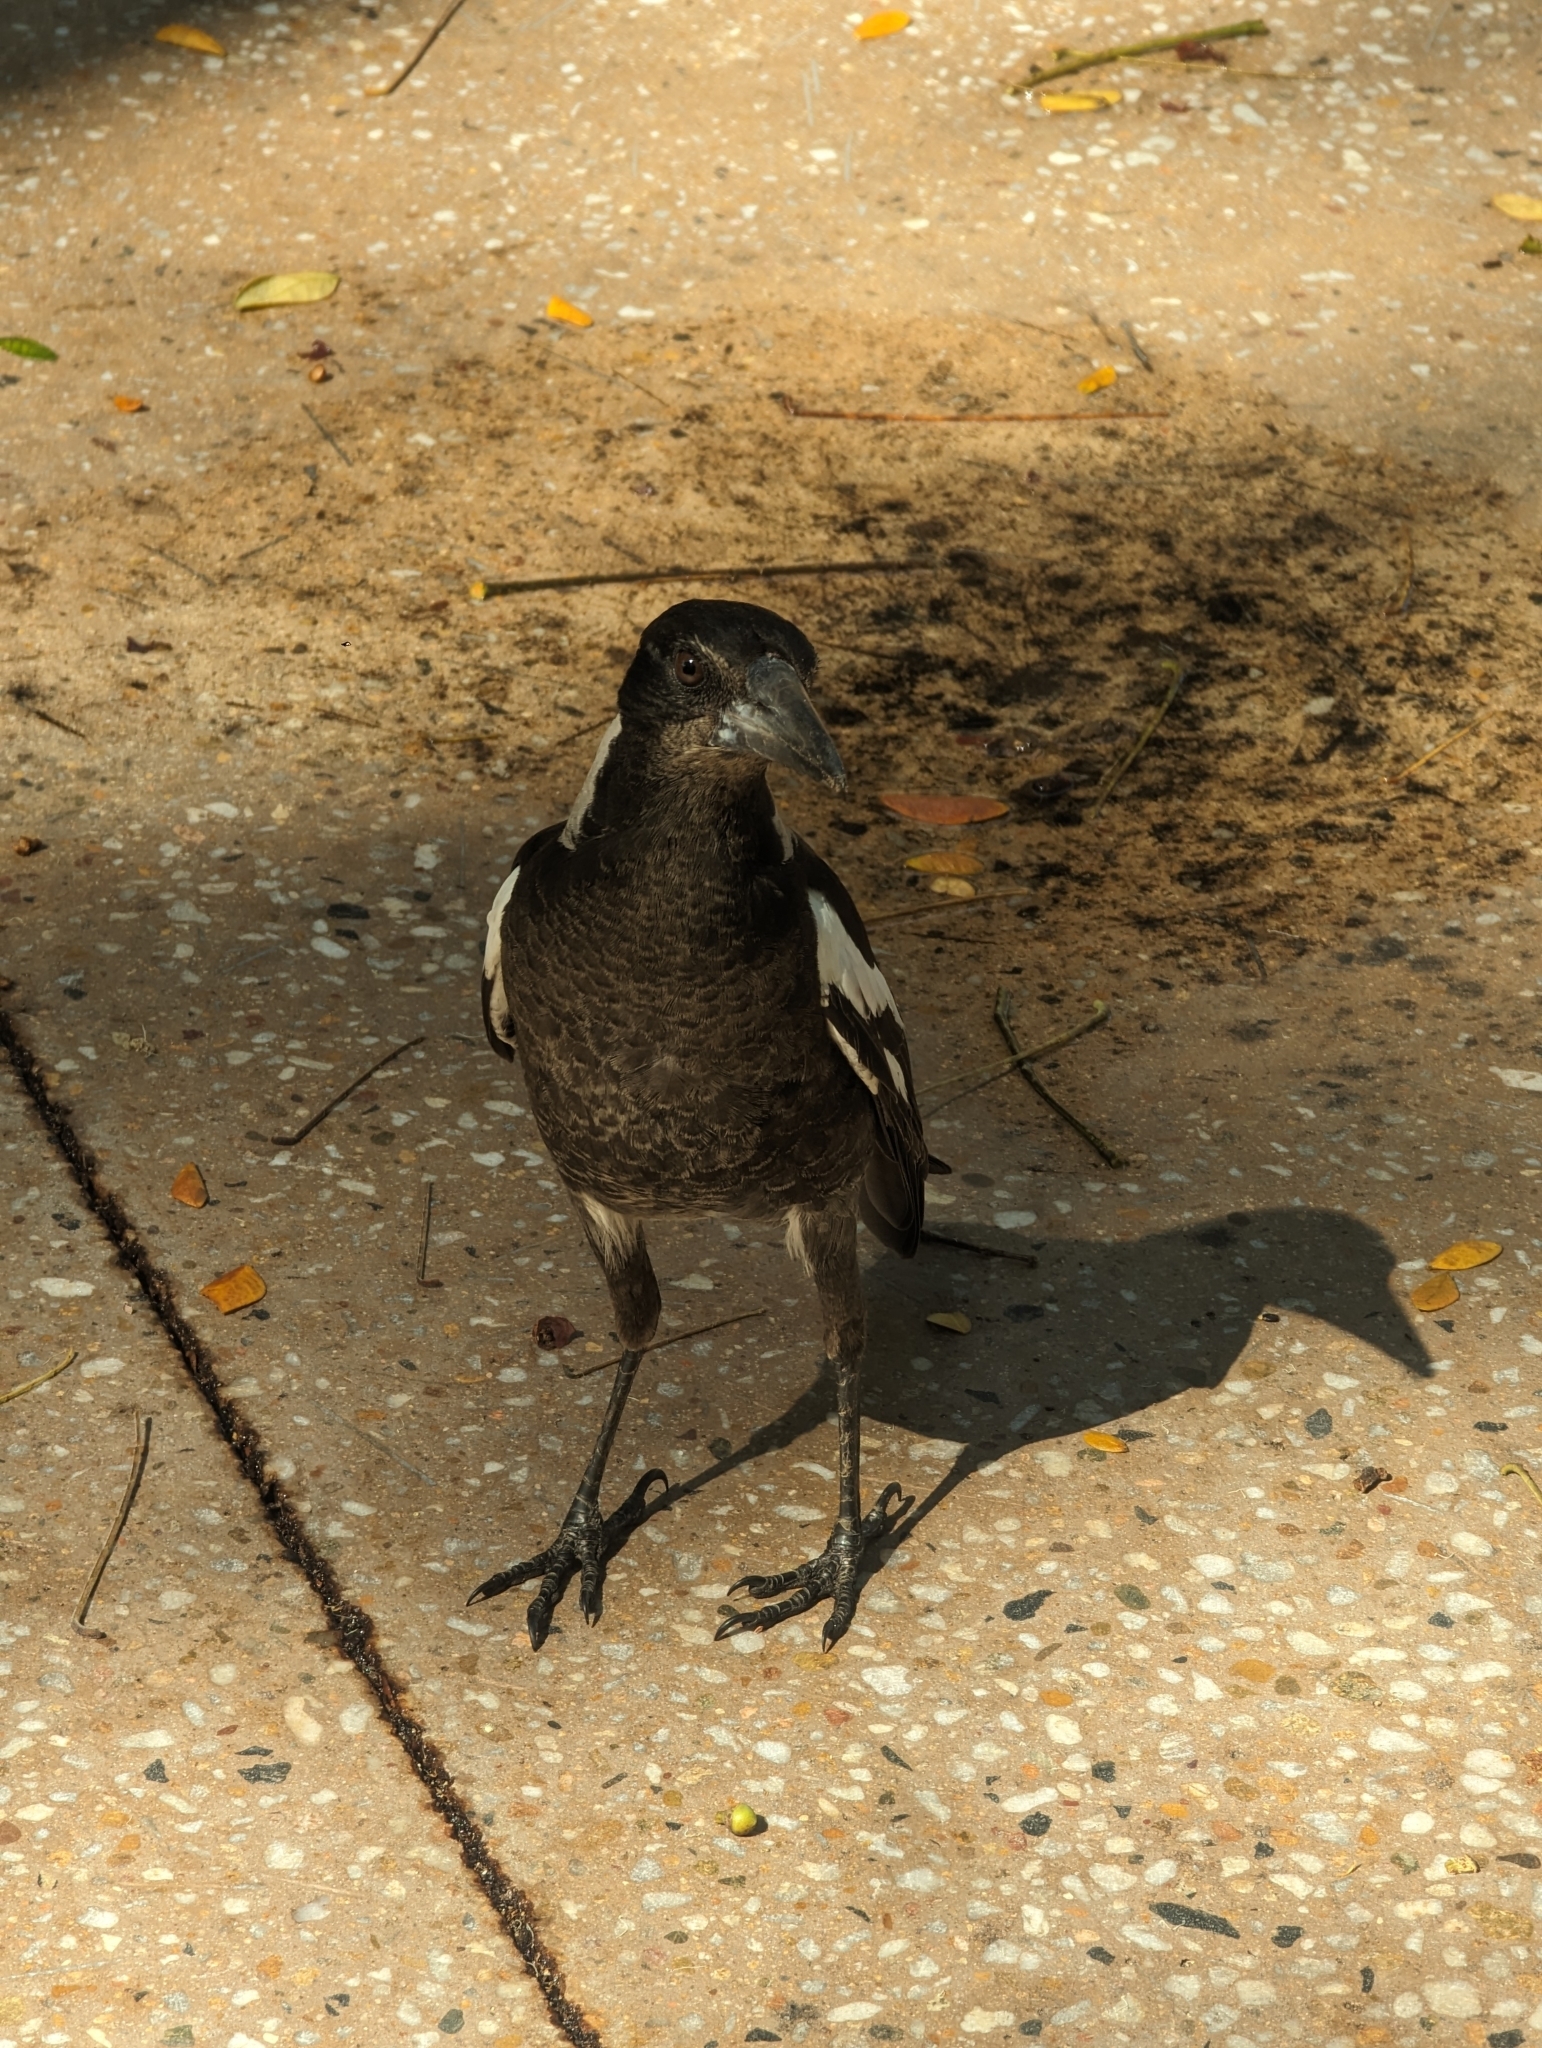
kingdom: Animalia
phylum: Chordata
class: Aves
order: Passeriformes
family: Cracticidae
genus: Gymnorhina
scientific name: Gymnorhina tibicen
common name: Australian magpie
